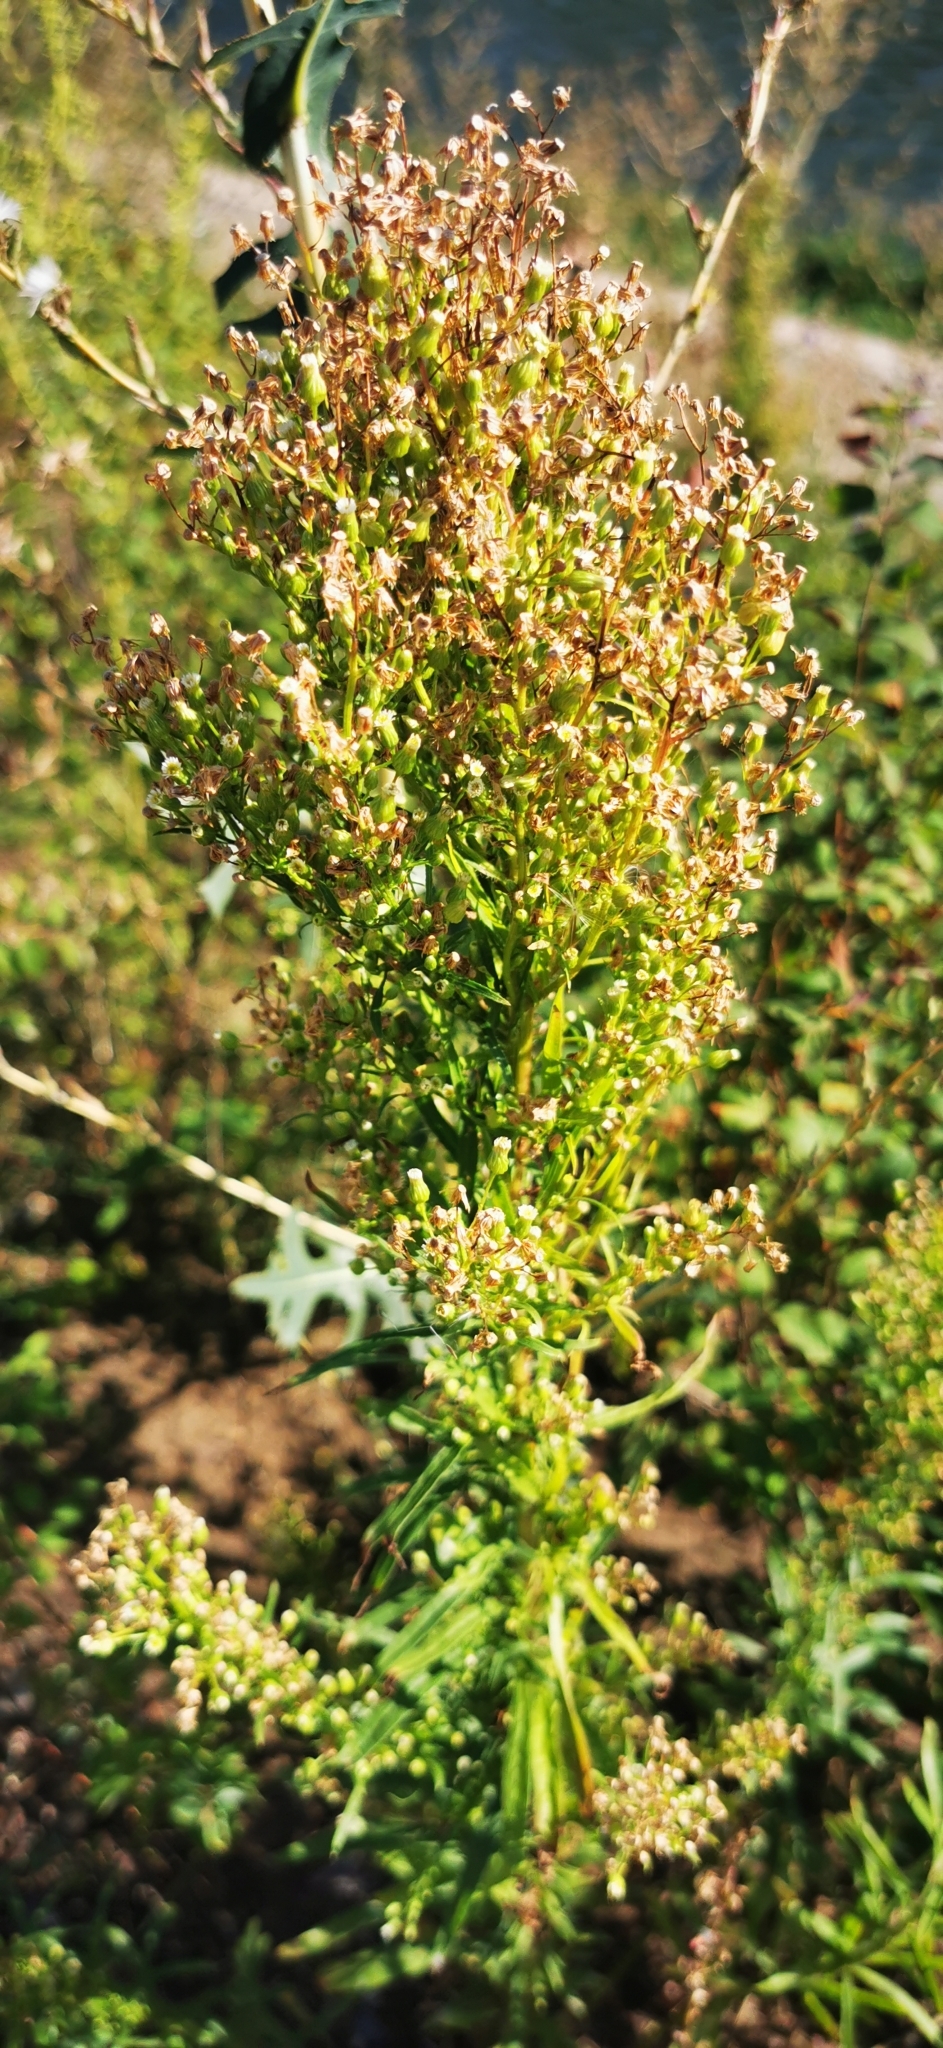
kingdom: Plantae
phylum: Tracheophyta
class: Magnoliopsida
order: Asterales
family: Asteraceae
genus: Erigeron
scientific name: Erigeron canadensis
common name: Canadian fleabane
